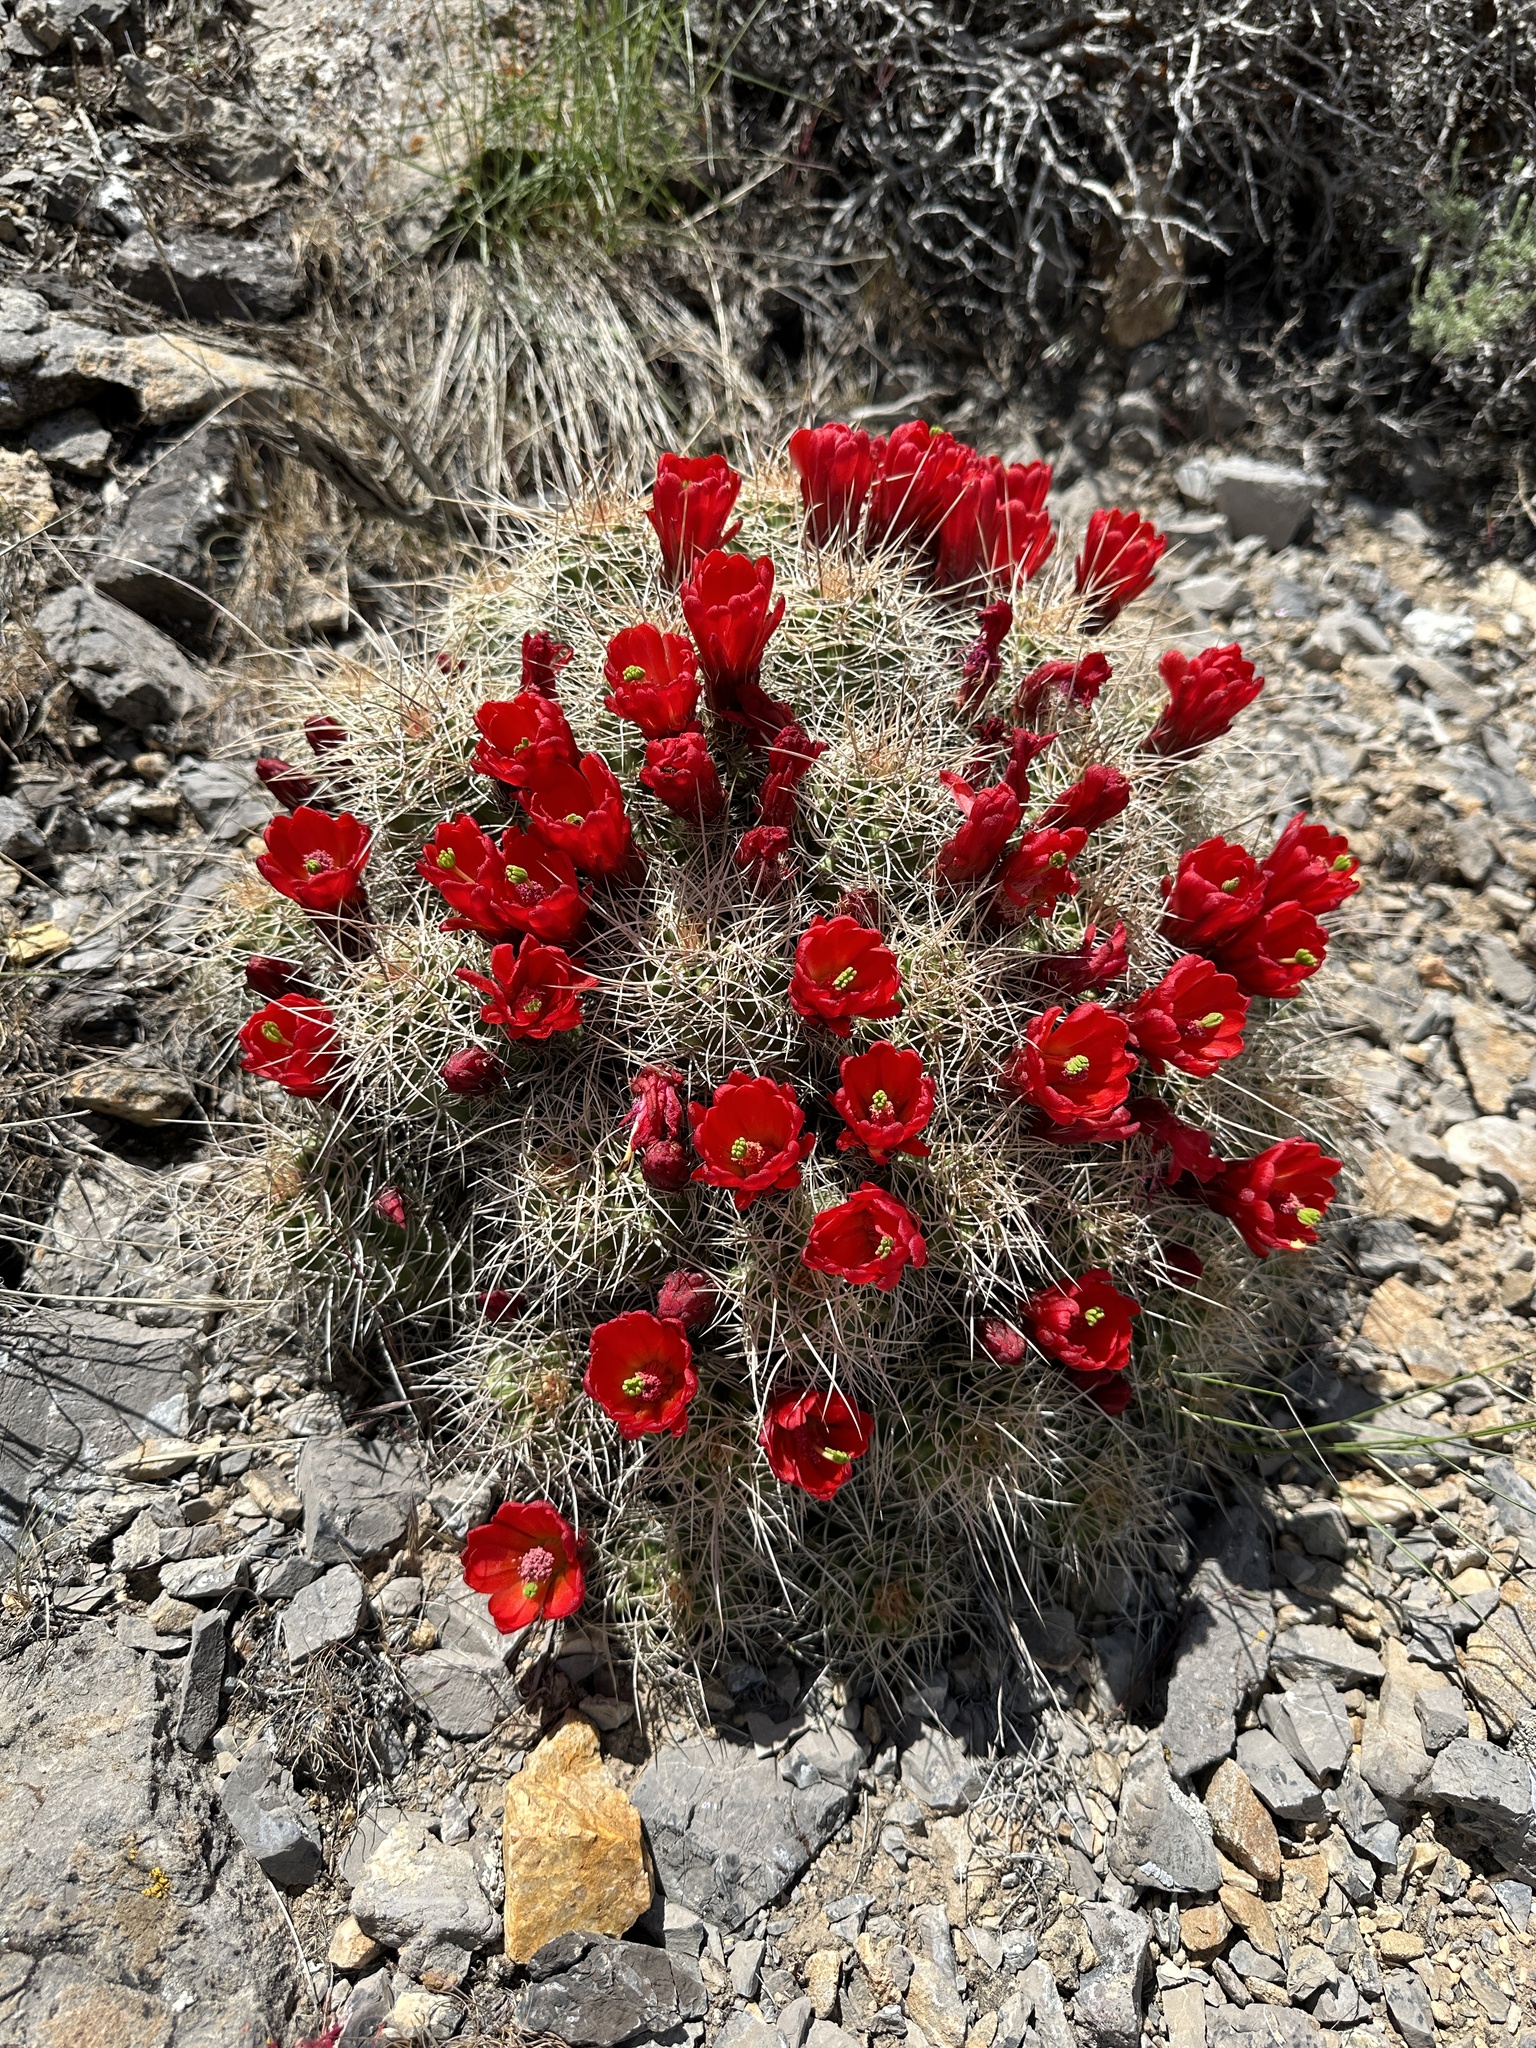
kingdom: Plantae
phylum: Tracheophyta
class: Magnoliopsida
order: Caryophyllales
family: Cactaceae
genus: Echinocereus
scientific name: Echinocereus triglochidiatus
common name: Claretcup hedgehog
